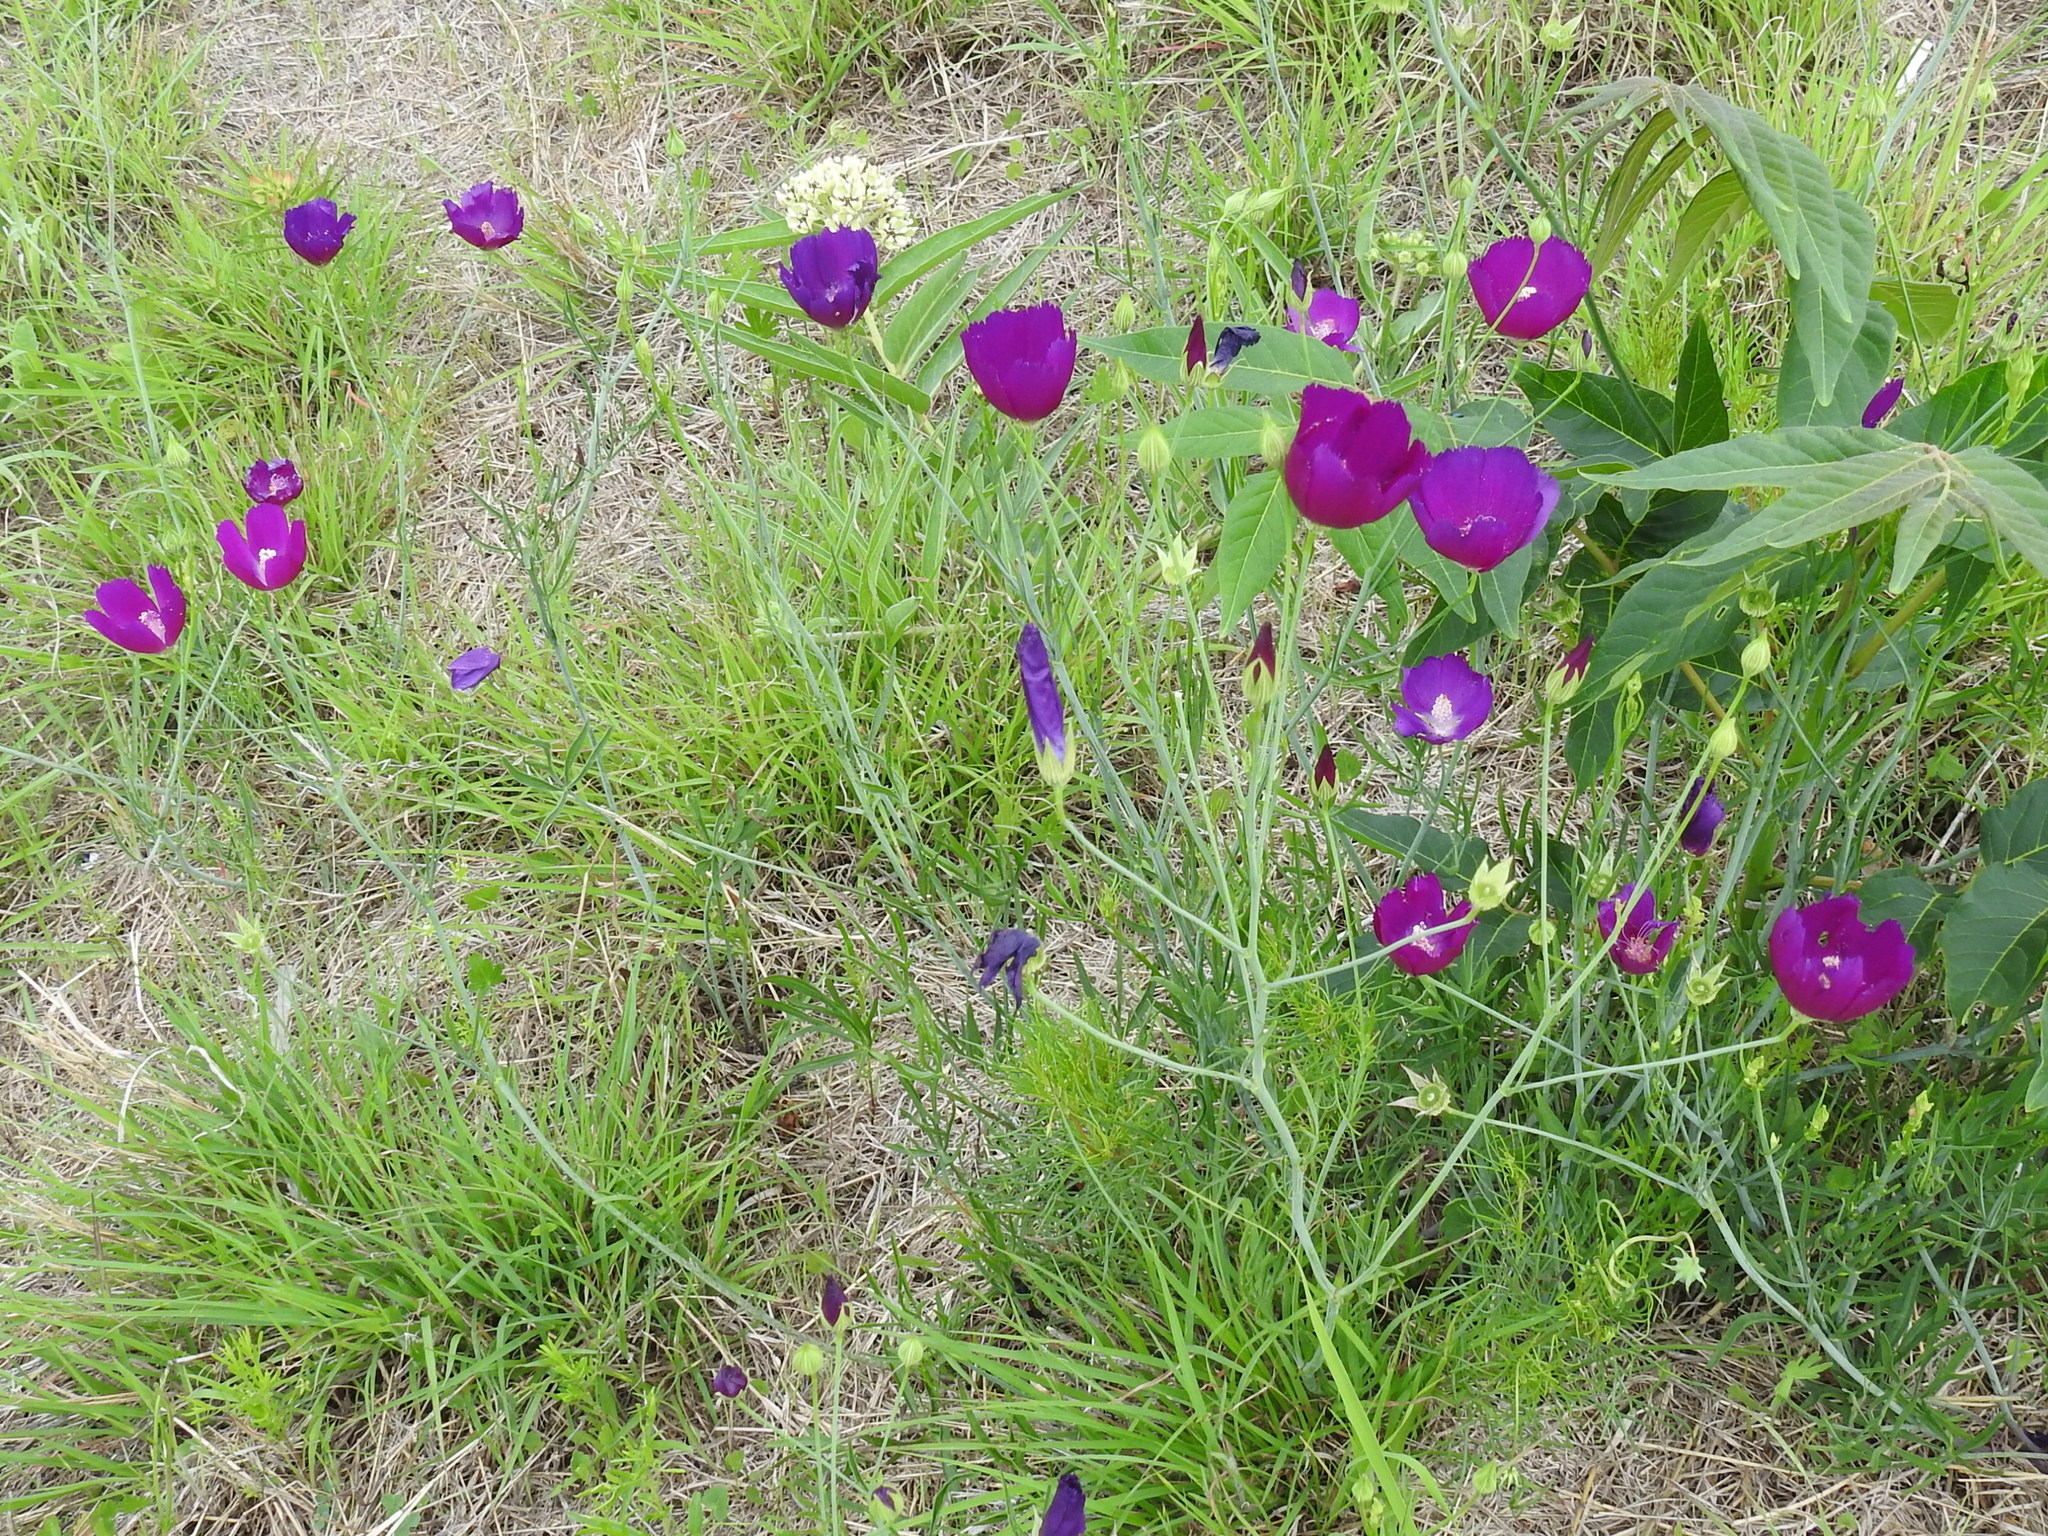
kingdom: Plantae
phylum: Tracheophyta
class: Magnoliopsida
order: Malvales
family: Malvaceae
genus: Callirhoe
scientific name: Callirhoe pedata
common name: Finger poppy-mallow
